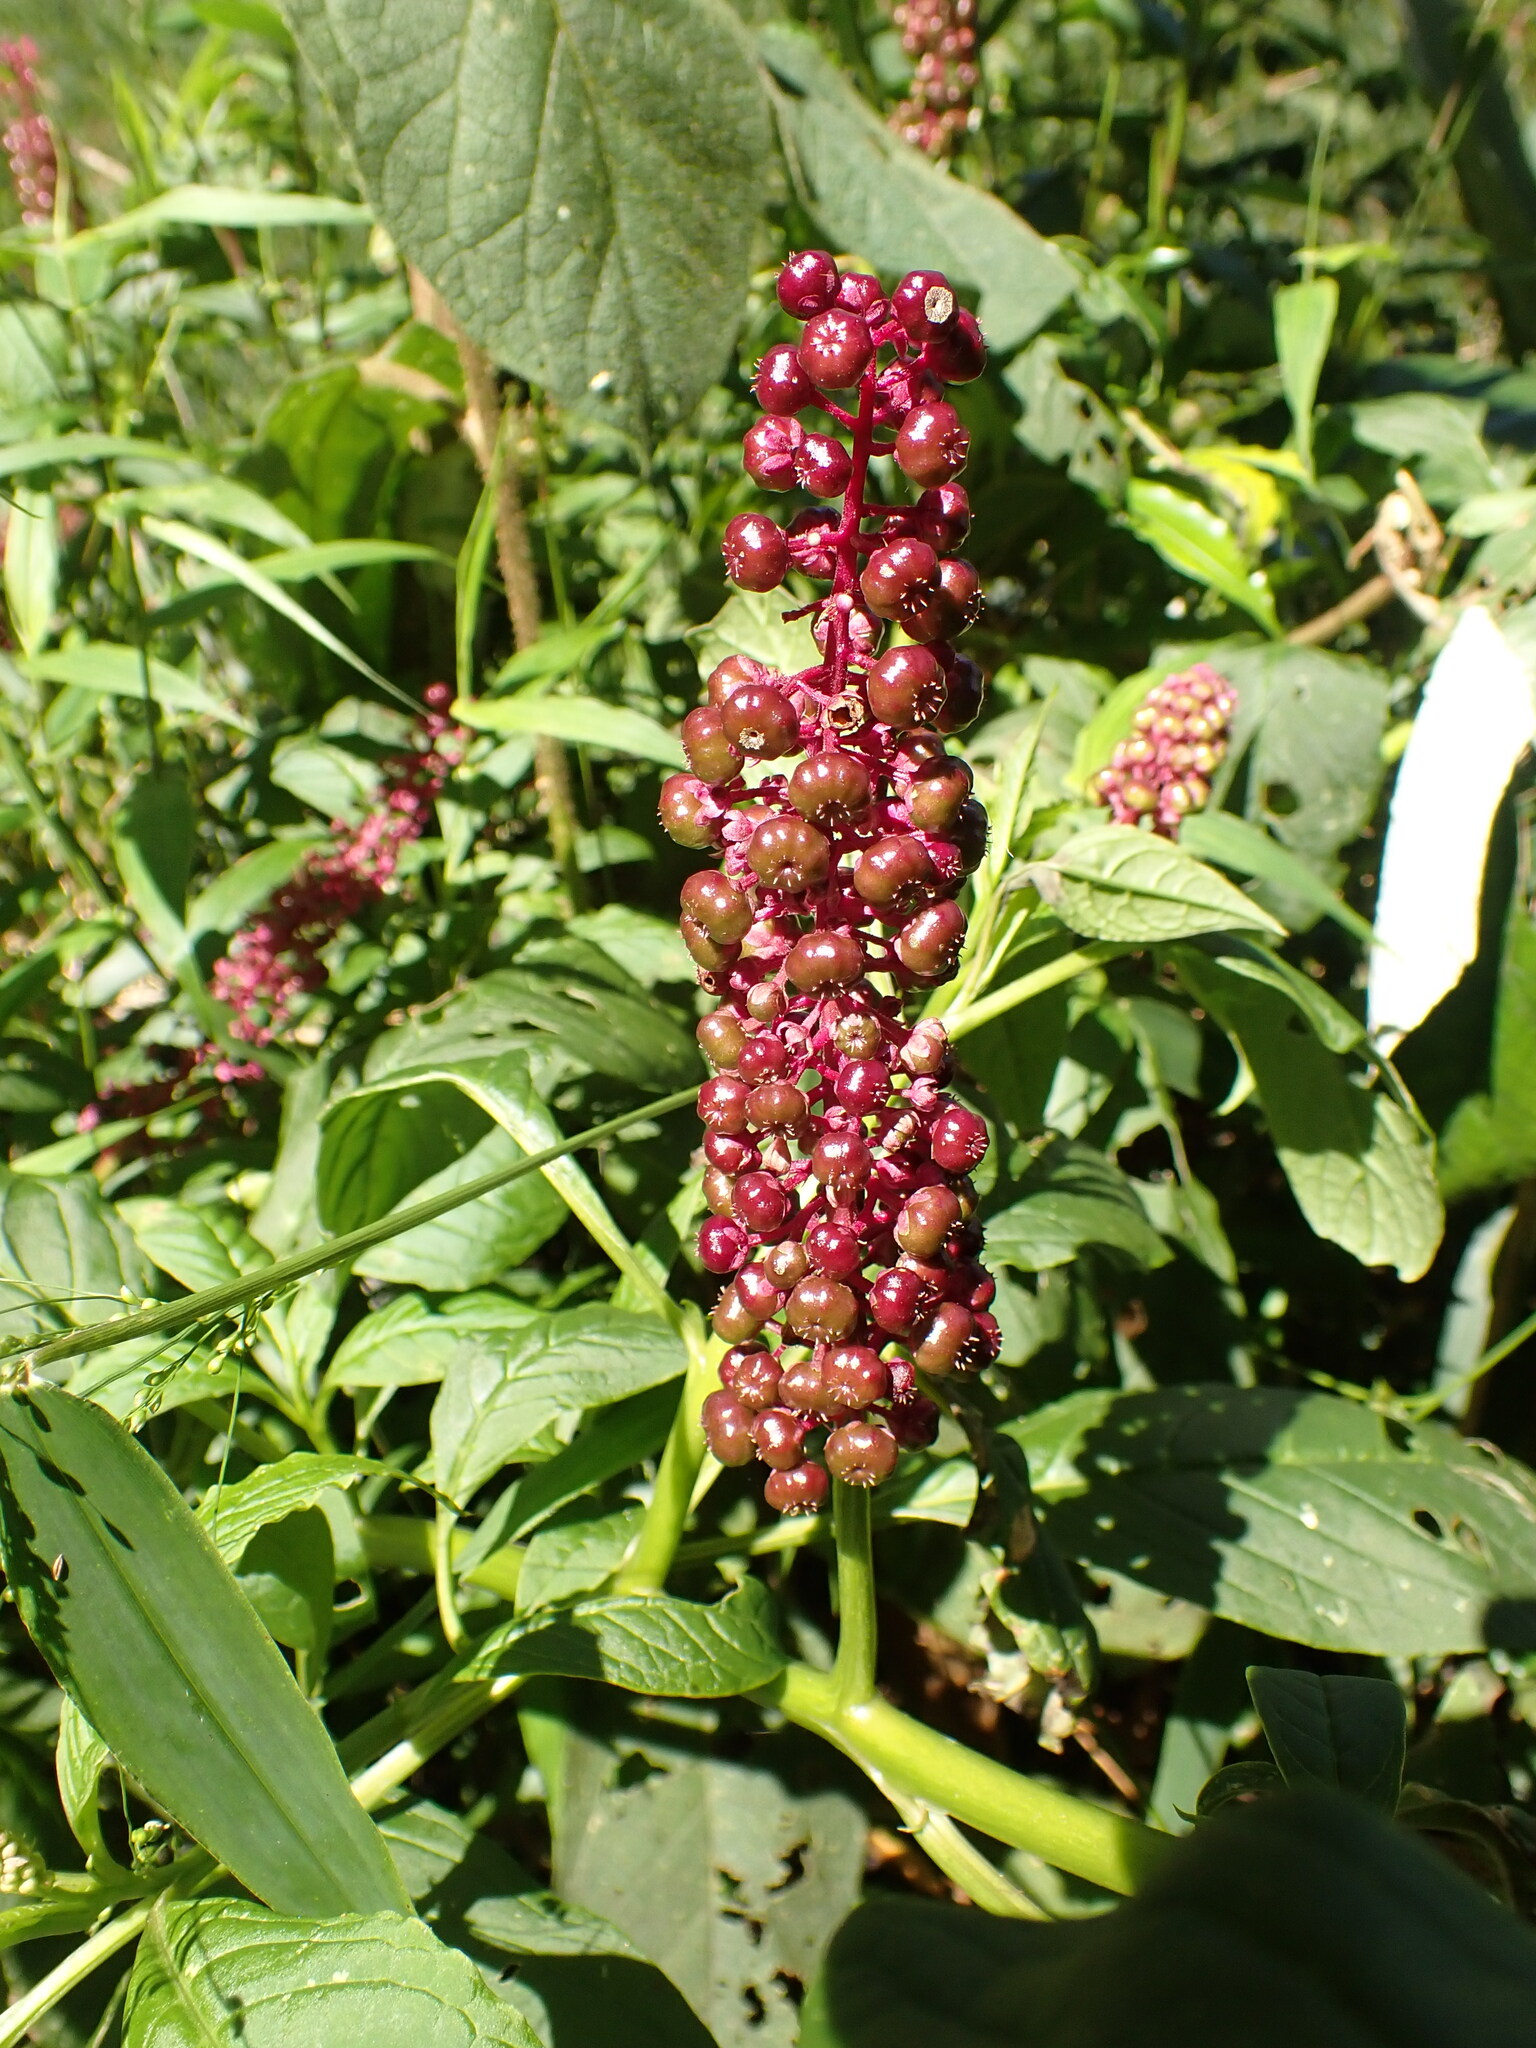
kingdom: Plantae
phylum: Tracheophyta
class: Magnoliopsida
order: Caryophyllales
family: Phytolaccaceae
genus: Phytolacca
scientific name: Phytolacca thyrsiflora
